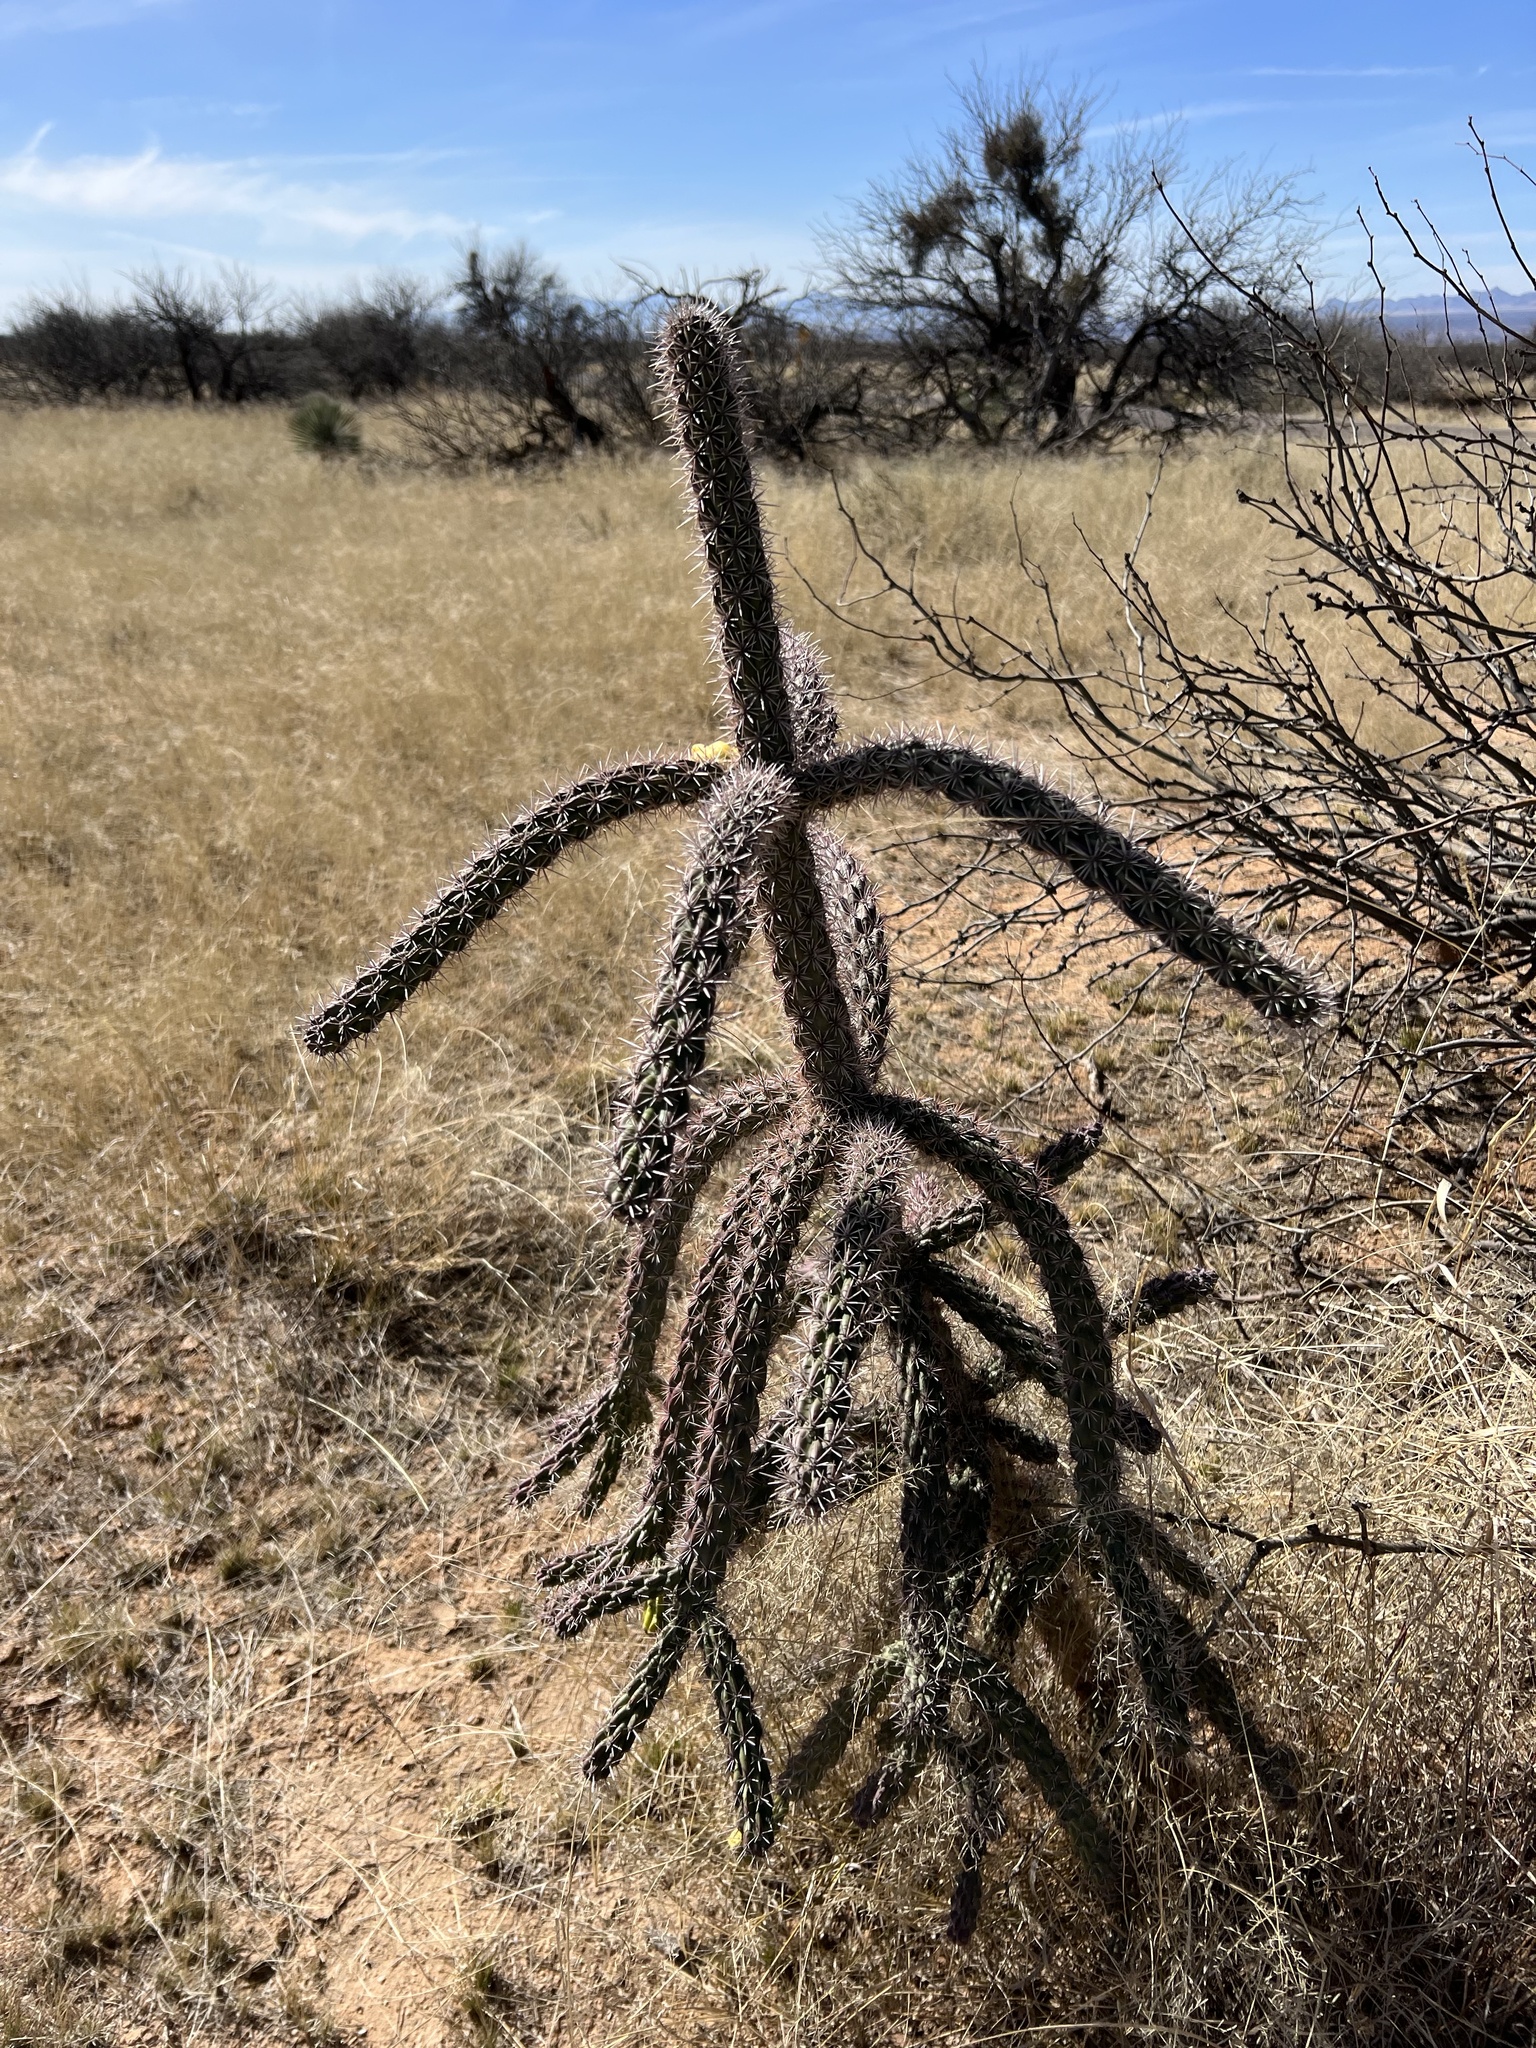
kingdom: Plantae
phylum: Tracheophyta
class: Magnoliopsida
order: Caryophyllales
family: Cactaceae
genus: Cylindropuntia
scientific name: Cylindropuntia imbricata
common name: Candelabrum cactus
